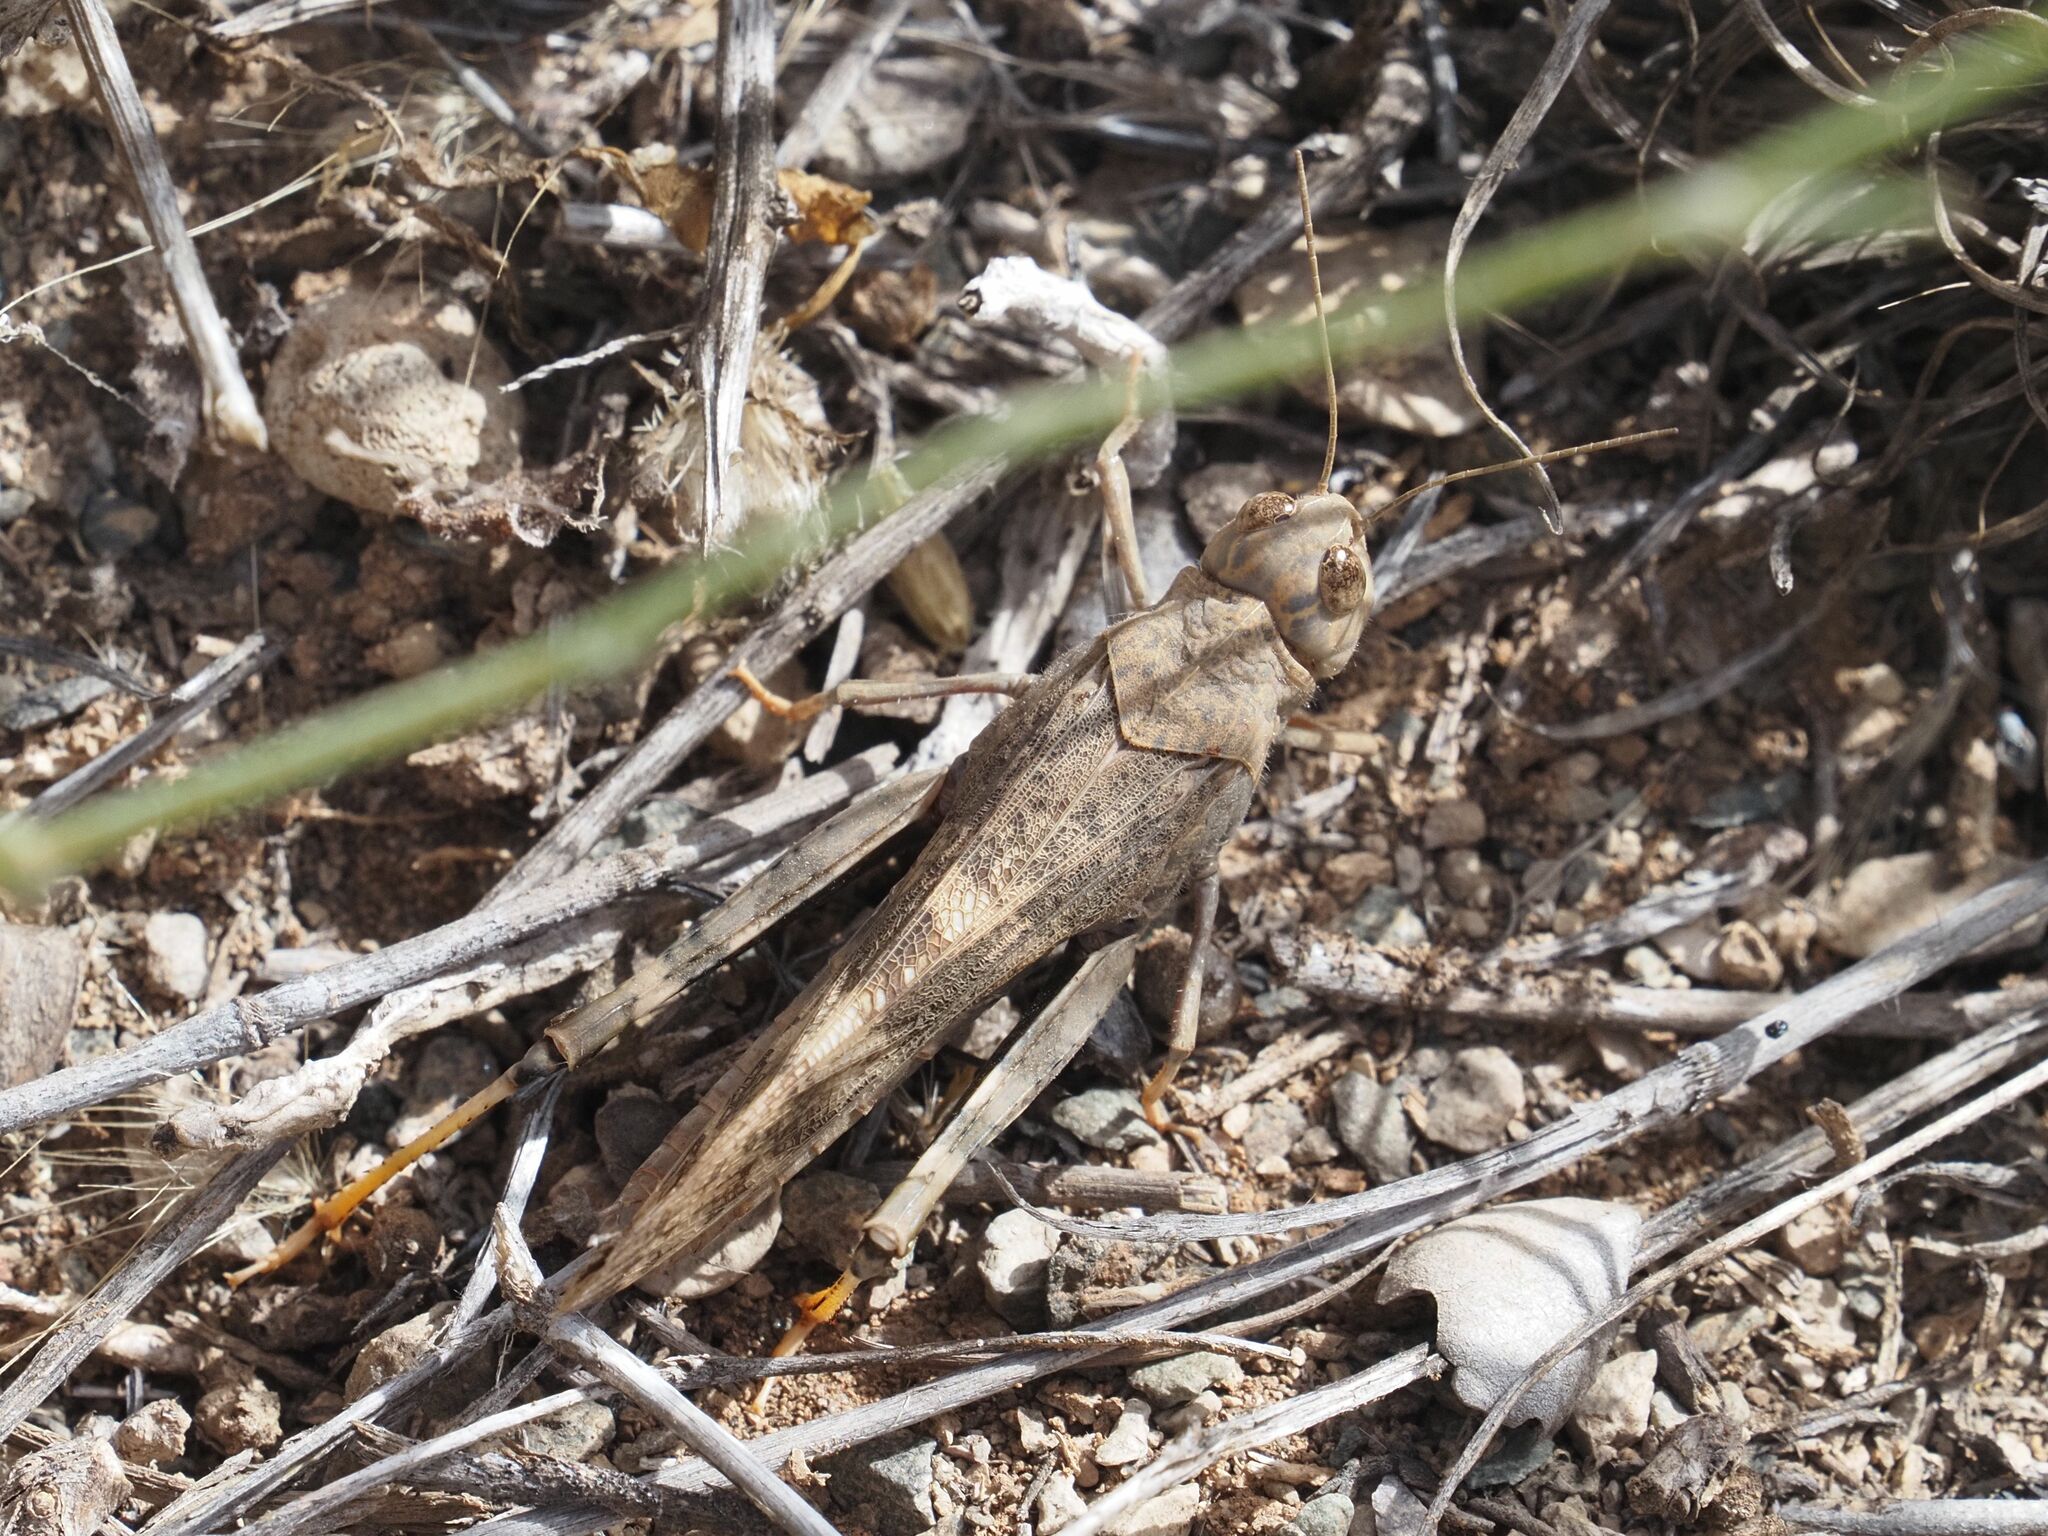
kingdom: Animalia
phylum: Arthropoda
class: Insecta
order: Orthoptera
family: Acrididae
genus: Scintharista
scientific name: Scintharista notabilis
